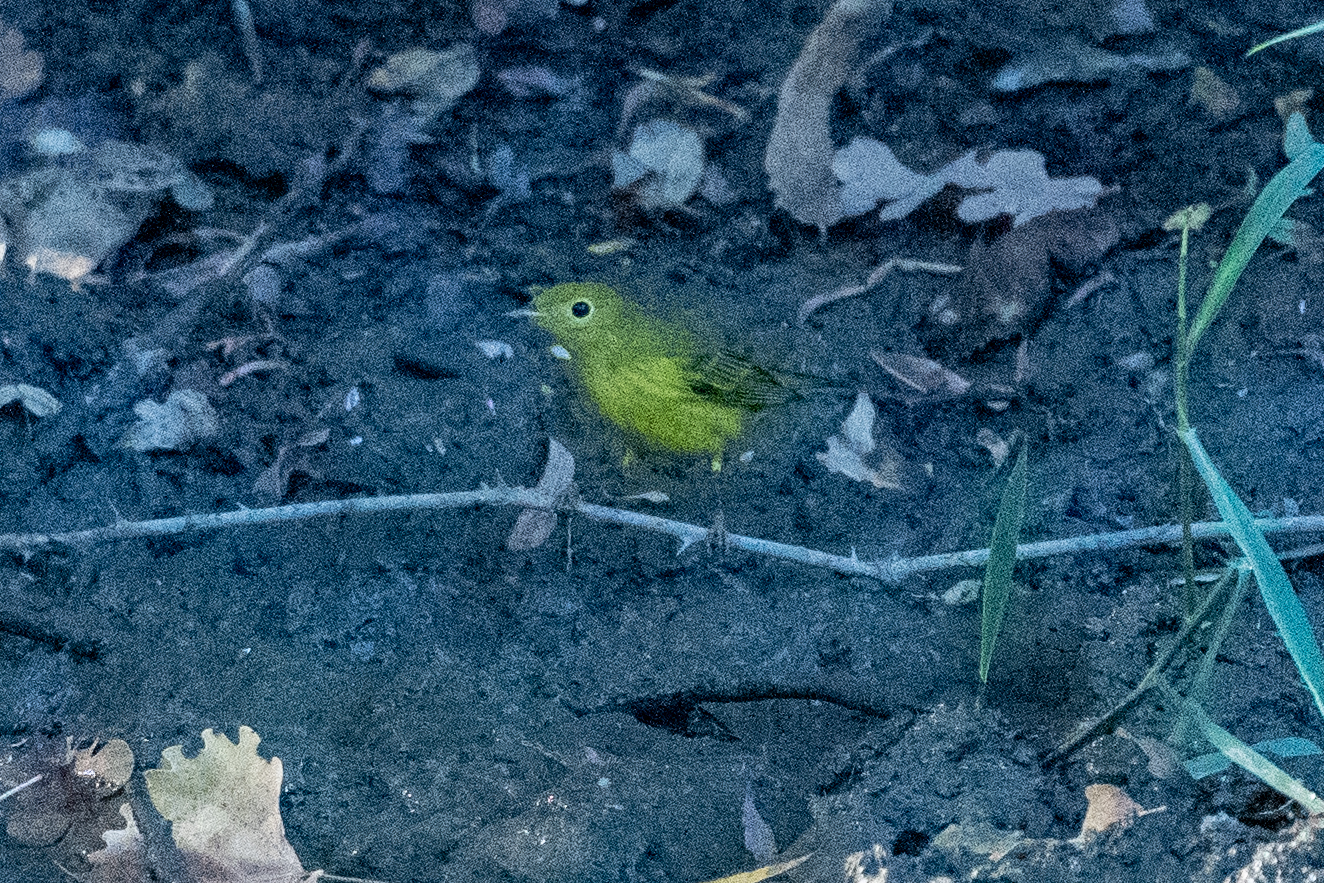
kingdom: Animalia
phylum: Chordata
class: Aves
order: Passeriformes
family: Parulidae
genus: Setophaga
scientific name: Setophaga petechia
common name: Yellow warbler
